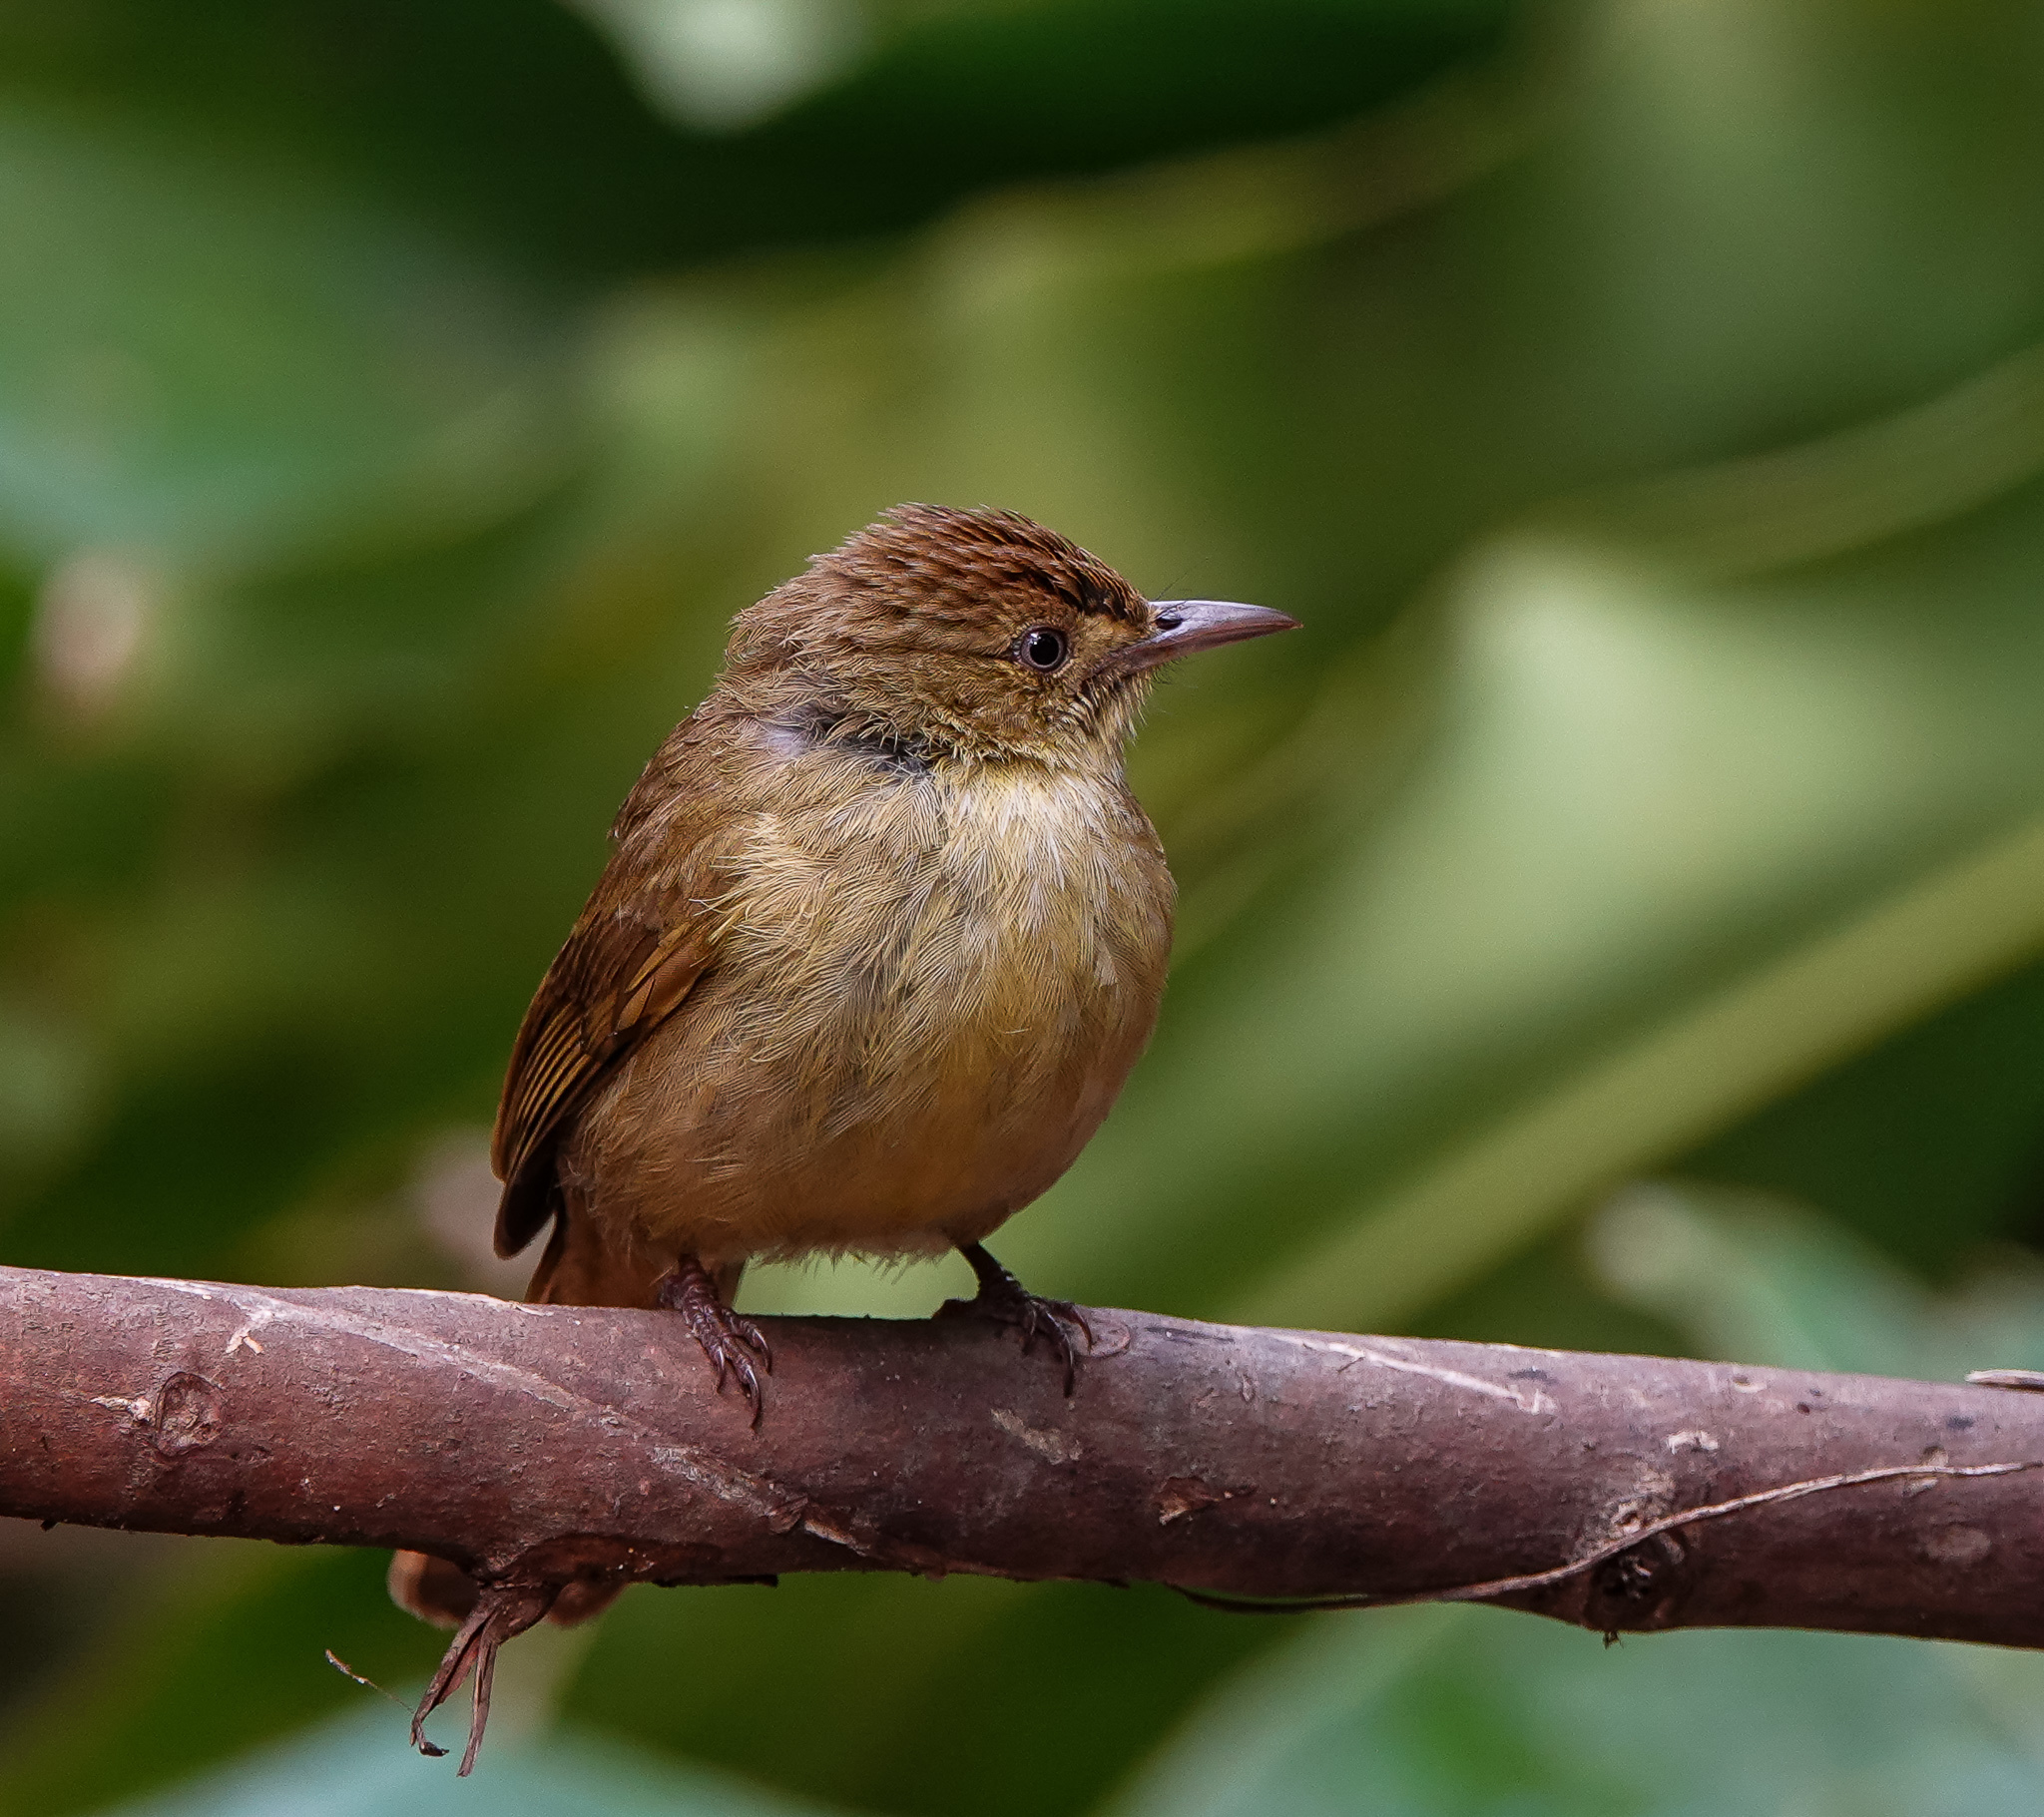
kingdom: Animalia
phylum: Chordata
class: Aves
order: Passeriformes
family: Pycnonotidae
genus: Iole
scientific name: Iole virescens
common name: Olive bulbul
